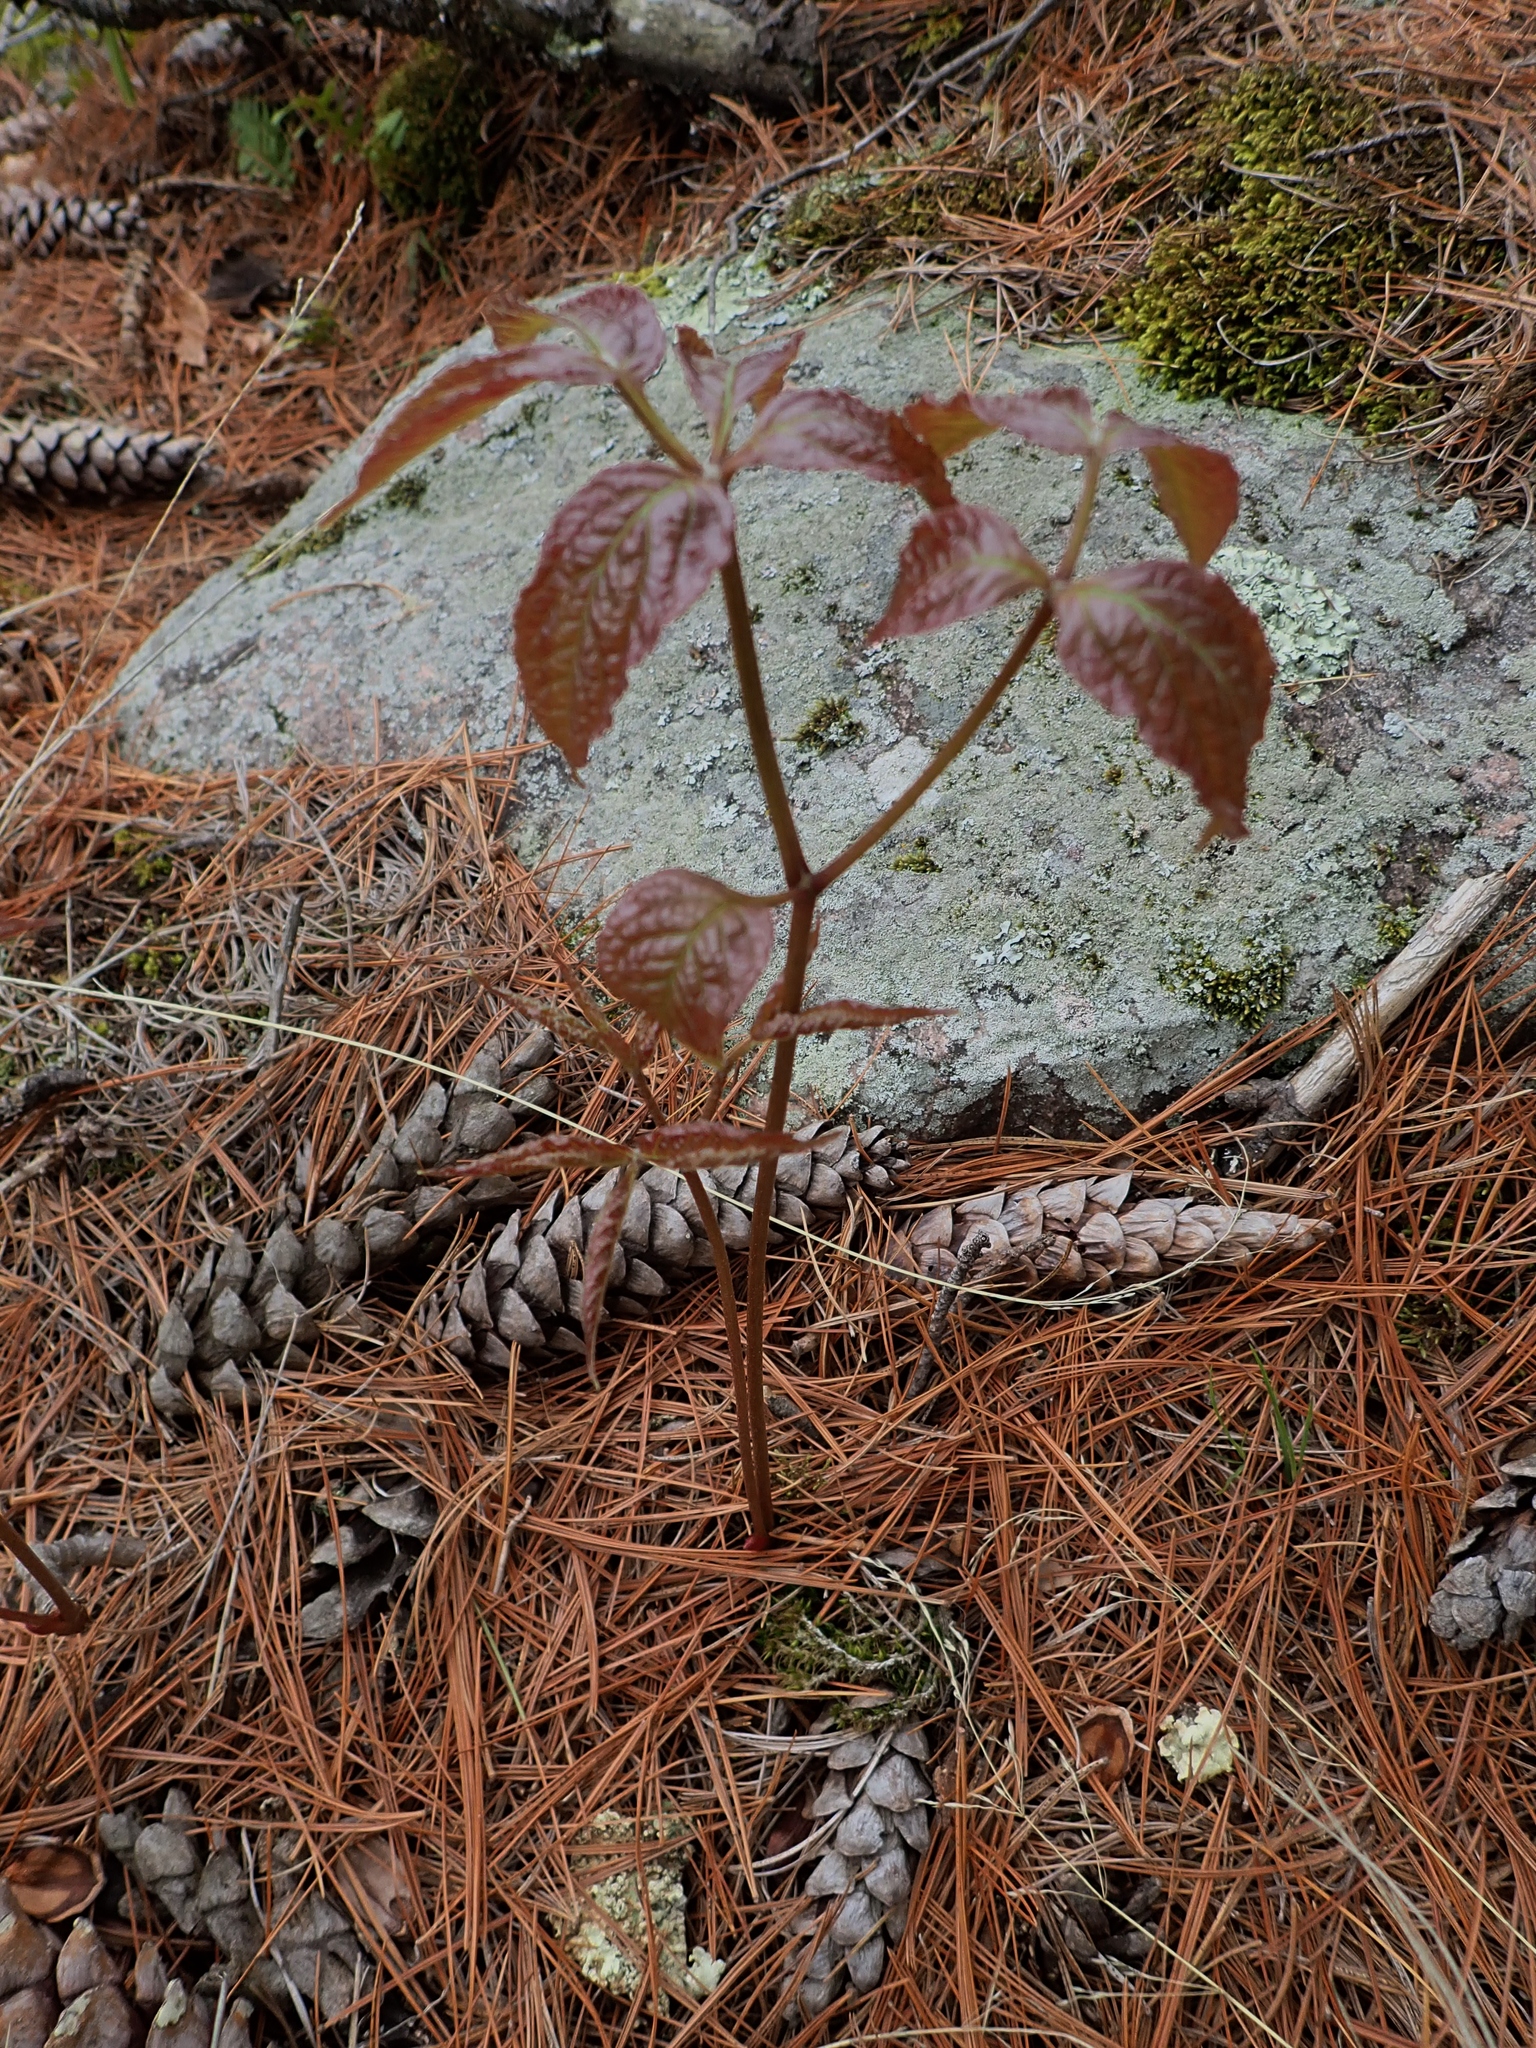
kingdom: Plantae
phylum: Tracheophyta
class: Magnoliopsida
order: Apiales
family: Araliaceae
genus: Aralia
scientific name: Aralia nudicaulis
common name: Wild sarsaparilla
